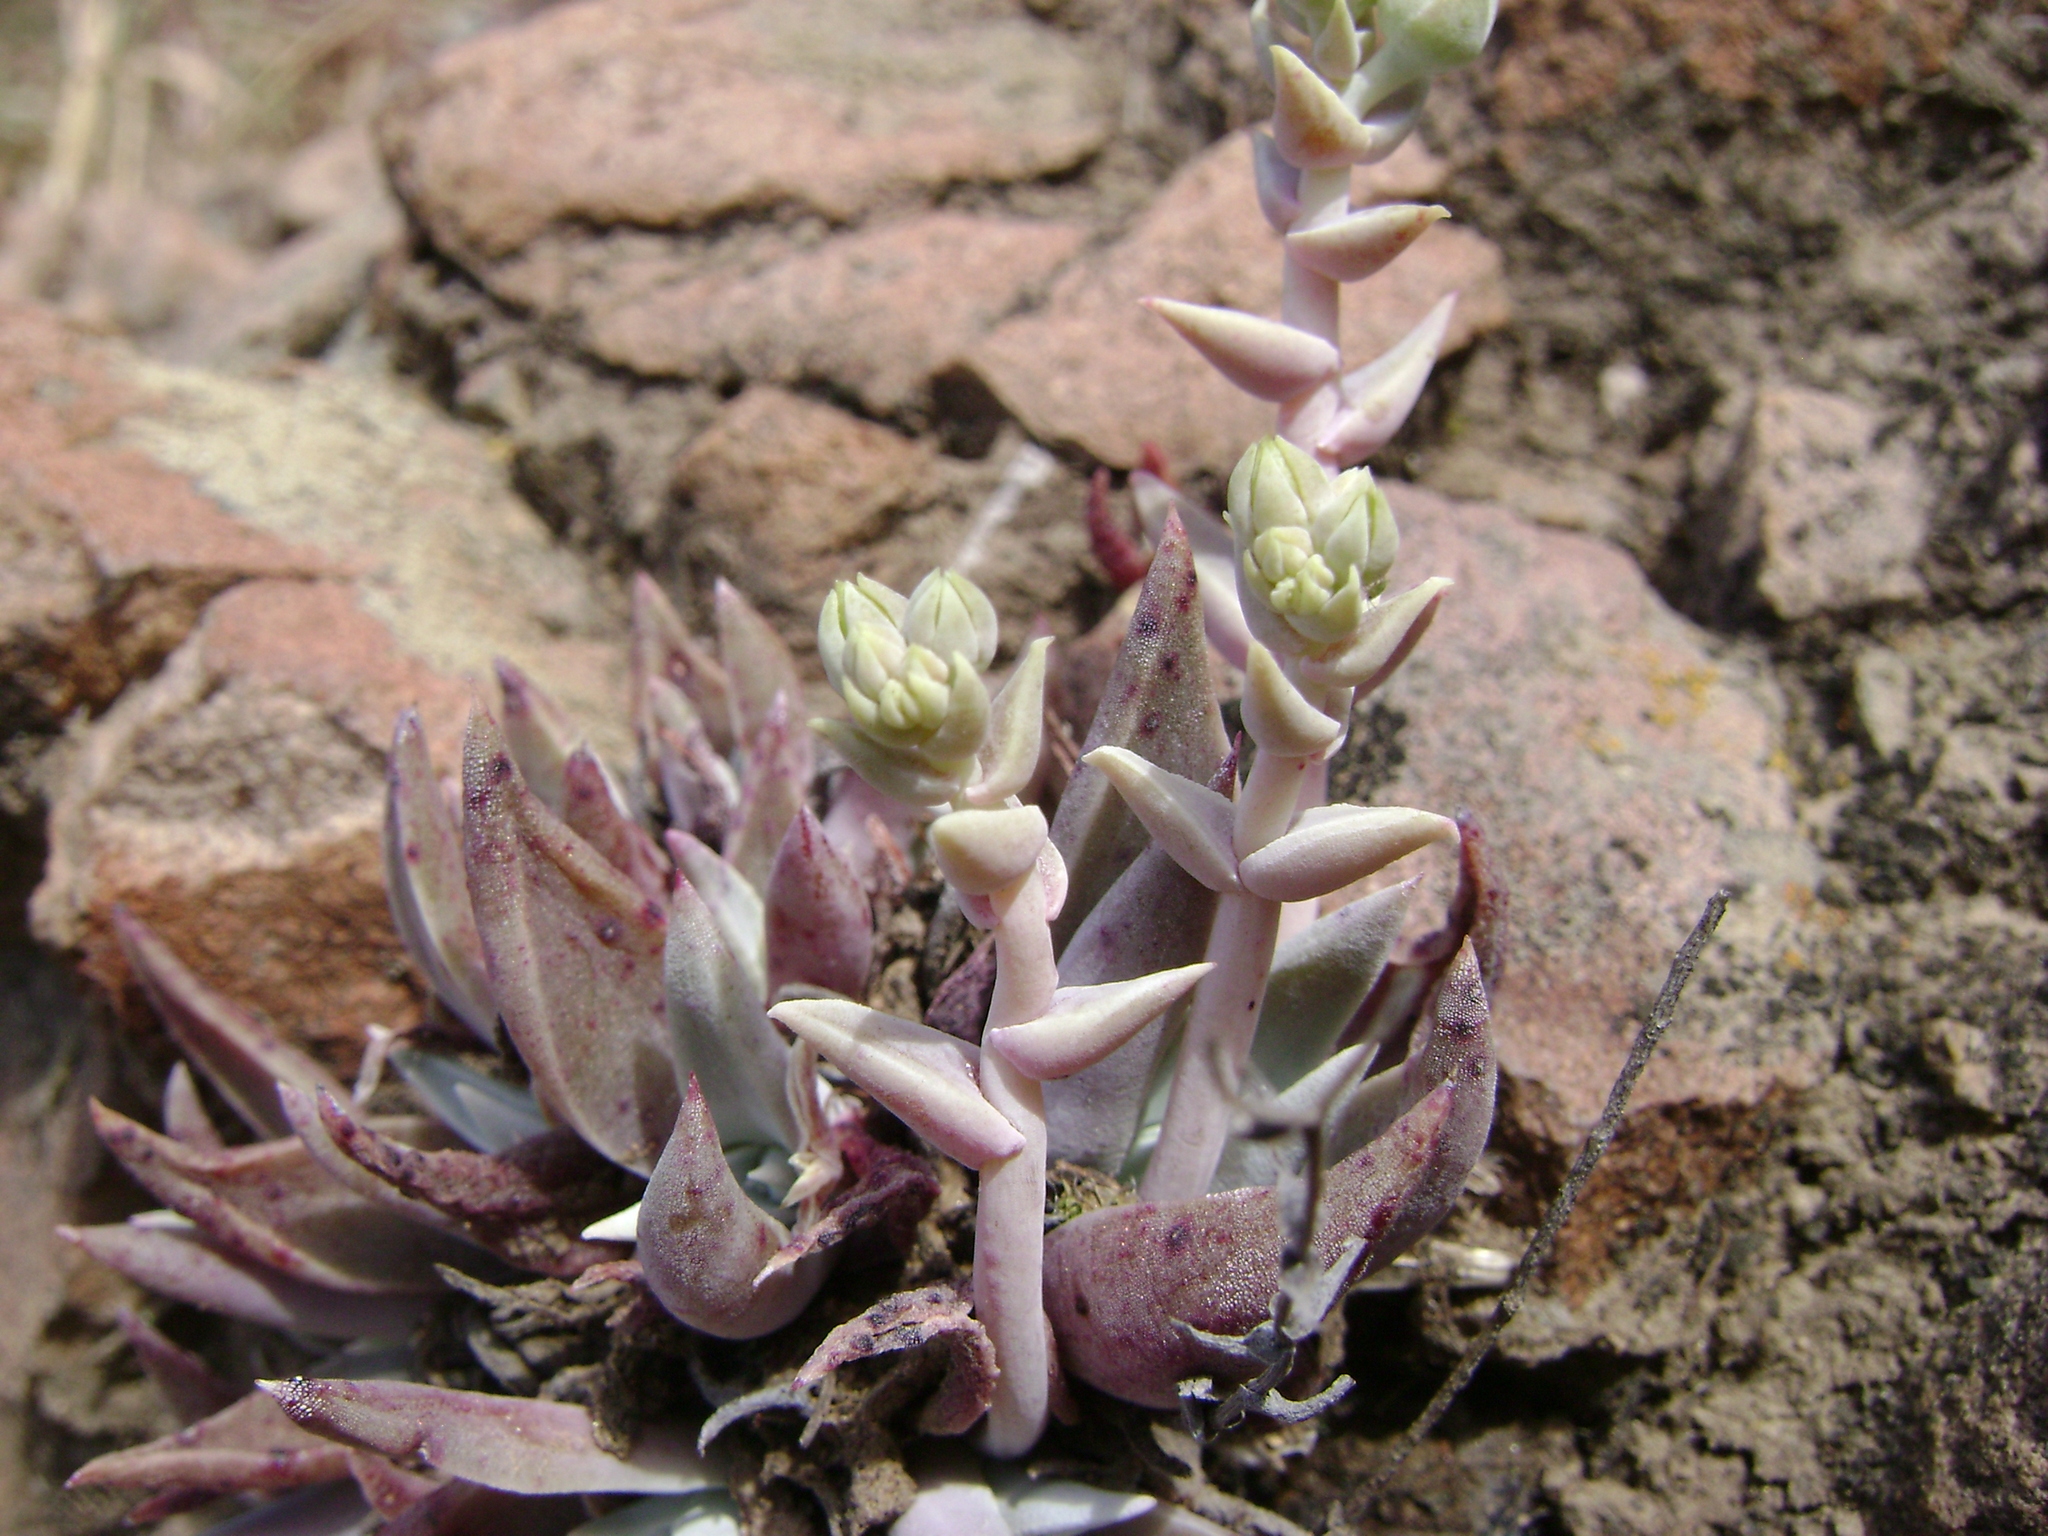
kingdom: Plantae
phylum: Tracheophyta
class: Magnoliopsida
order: Saxifragales
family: Crassulaceae
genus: Dudleya
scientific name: Dudleya verityi
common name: Verity dudleya
